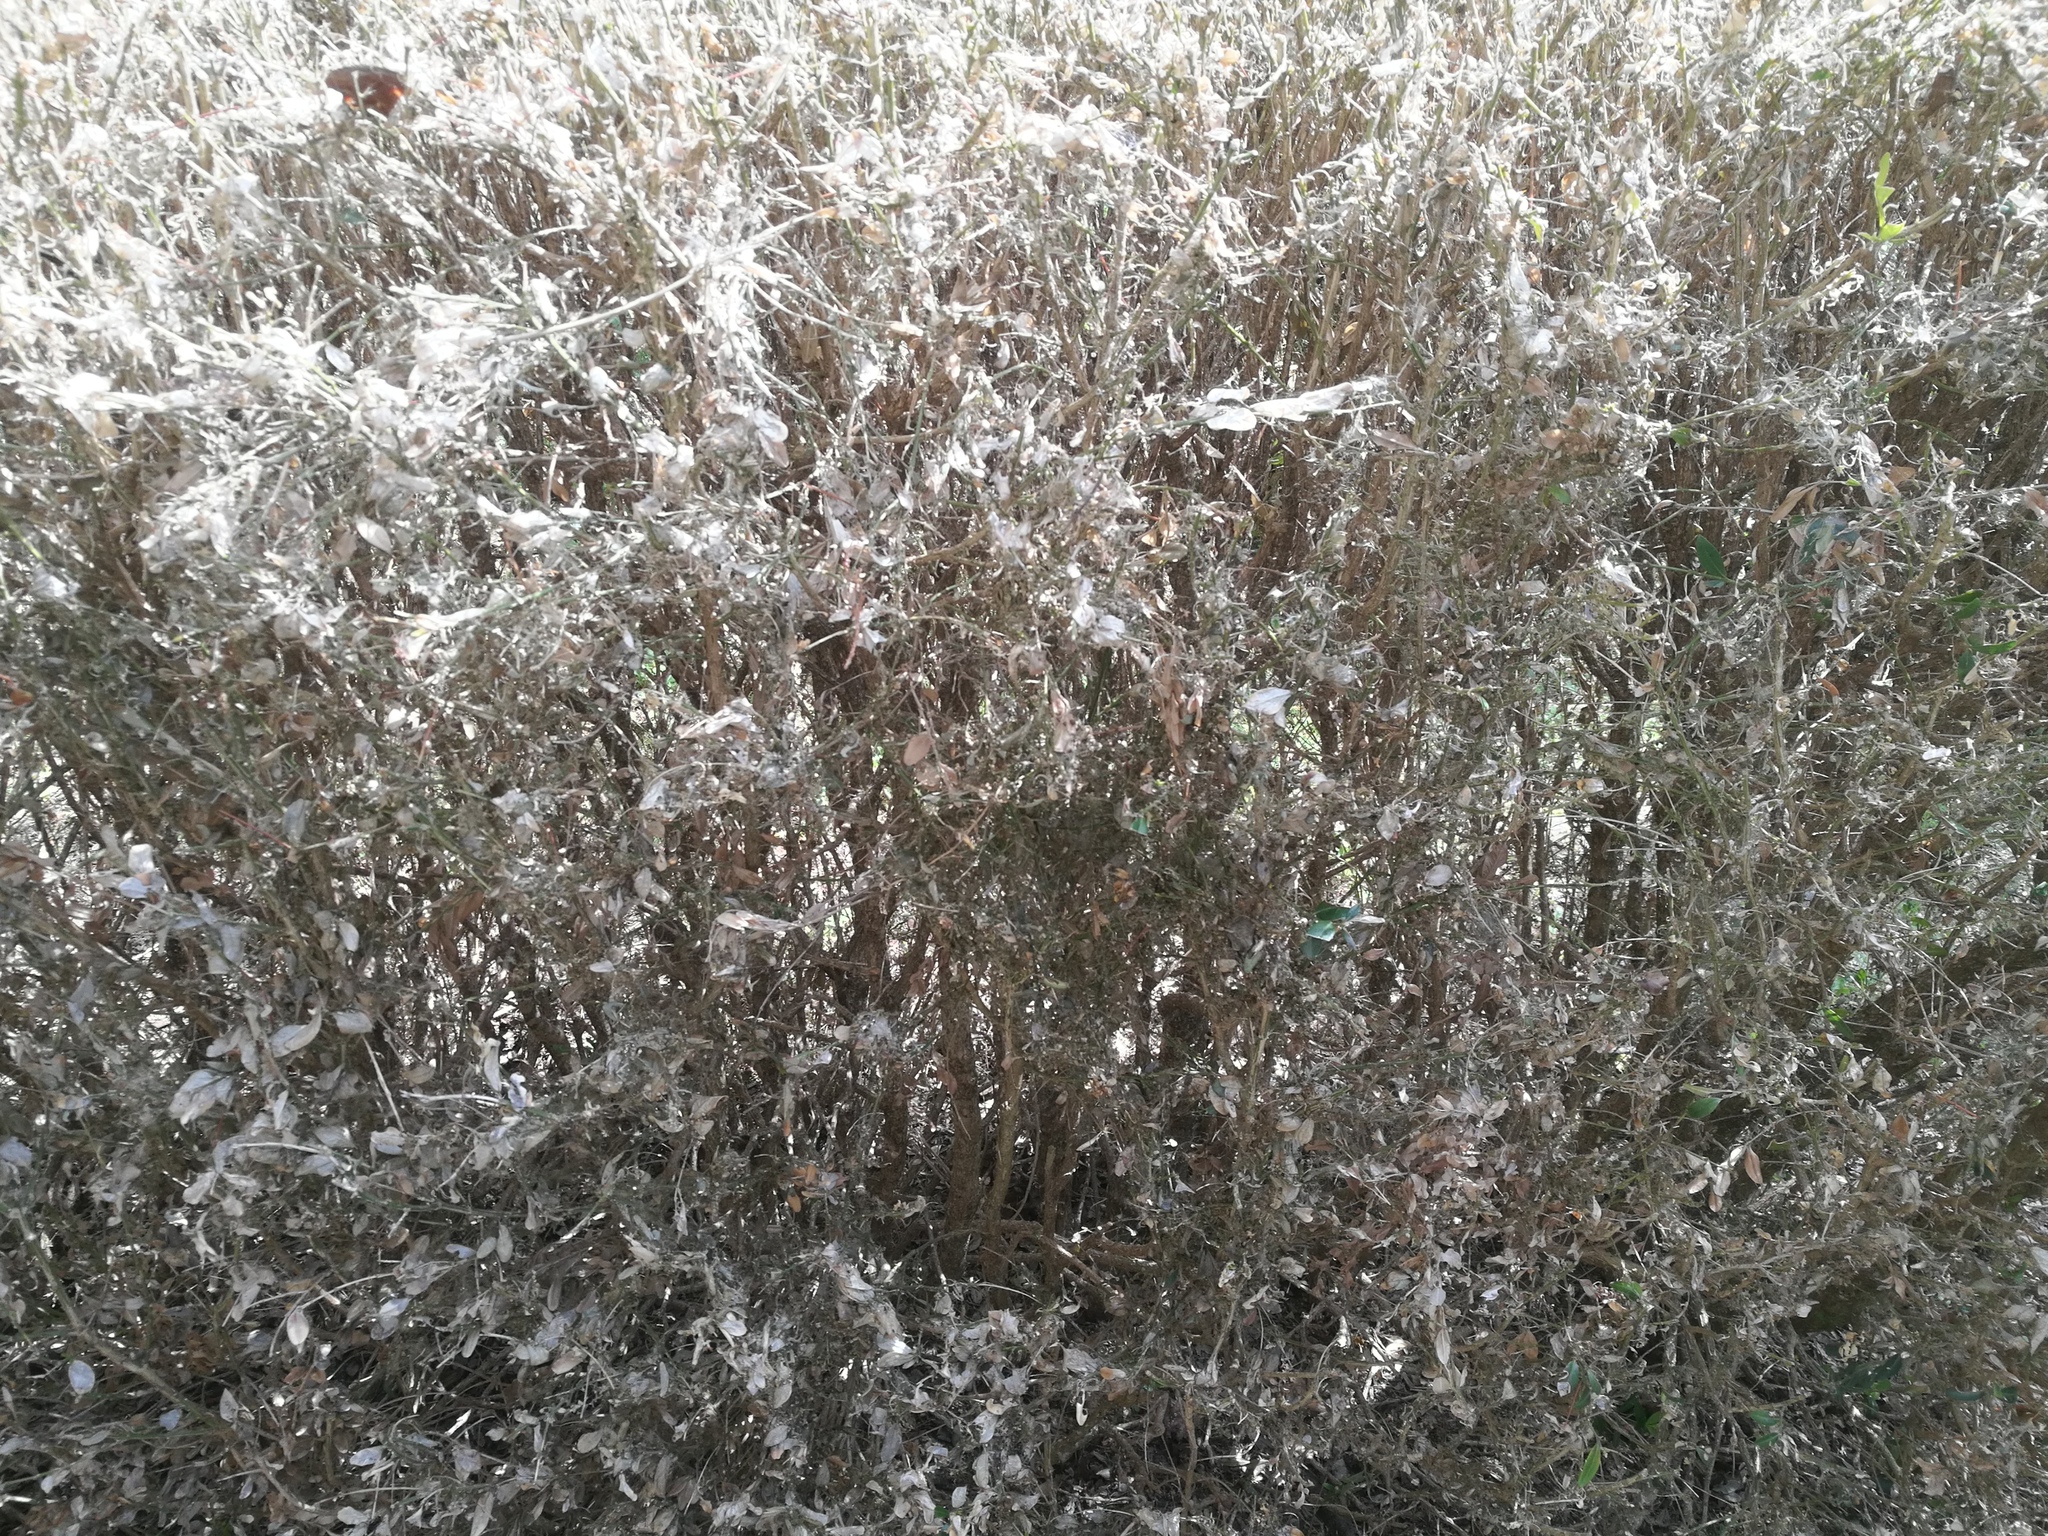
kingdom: Animalia
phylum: Arthropoda
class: Insecta
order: Lepidoptera
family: Crambidae
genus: Cydalima
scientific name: Cydalima perspectalis
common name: Box tree moth
